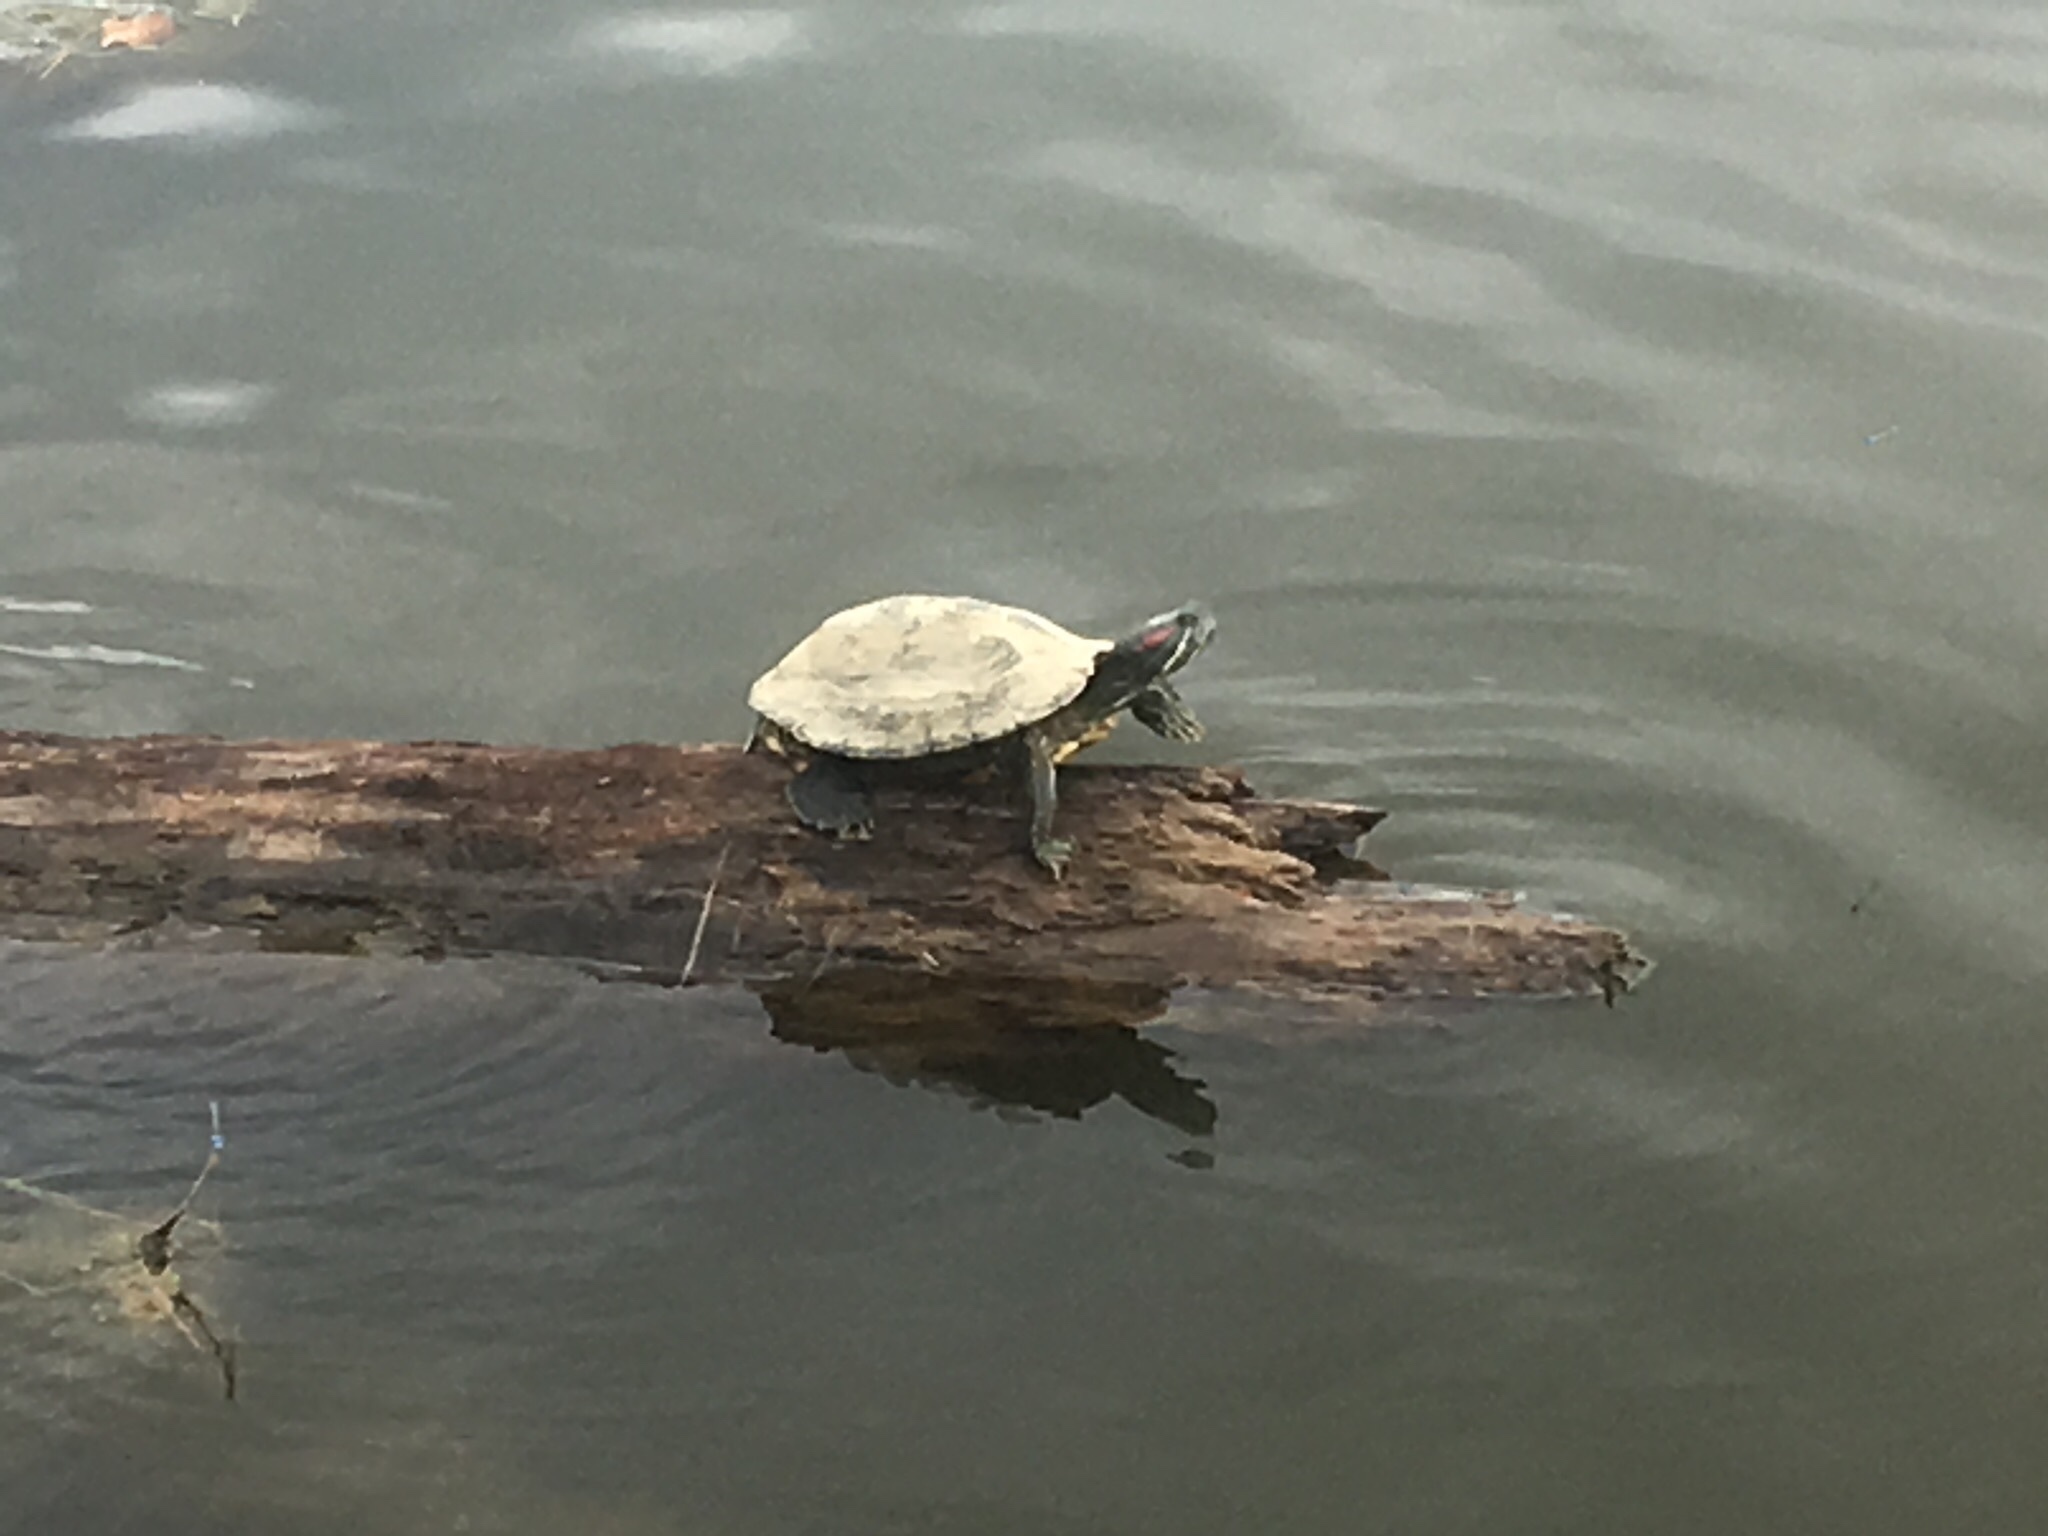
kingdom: Animalia
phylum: Chordata
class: Testudines
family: Emydidae
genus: Trachemys
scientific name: Trachemys scripta
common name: Slider
